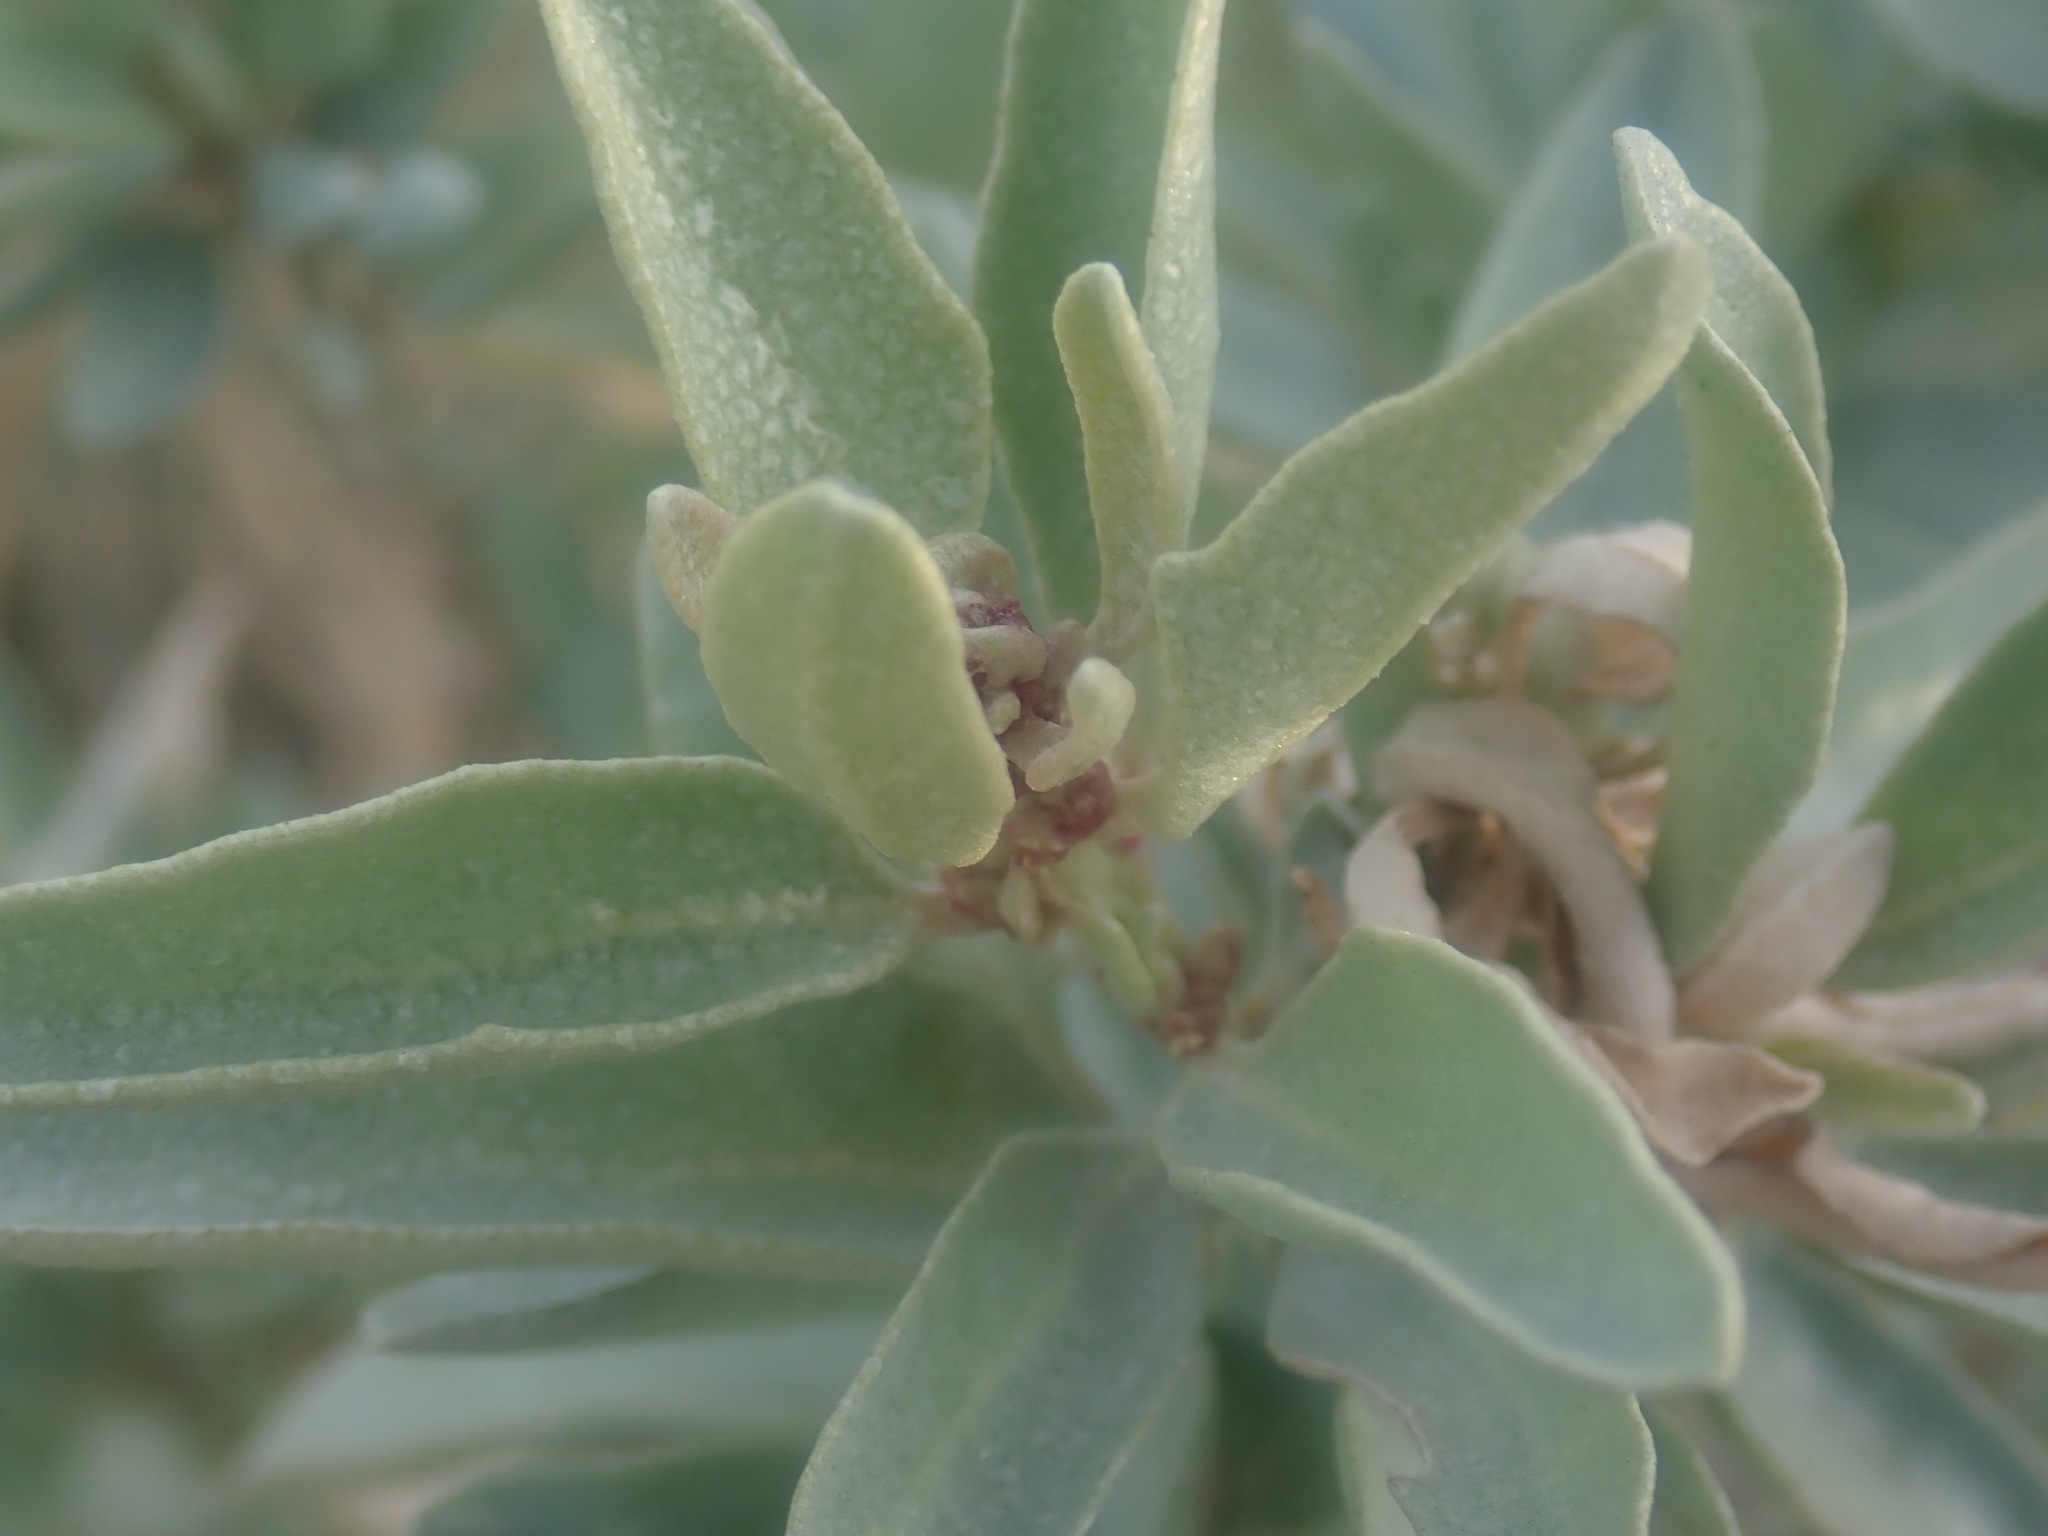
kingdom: Plantae
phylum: Tracheophyta
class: Magnoliopsida
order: Caryophyllales
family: Amaranthaceae
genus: Atriplex
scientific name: Atriplex cinerea
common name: Grey saltbush
